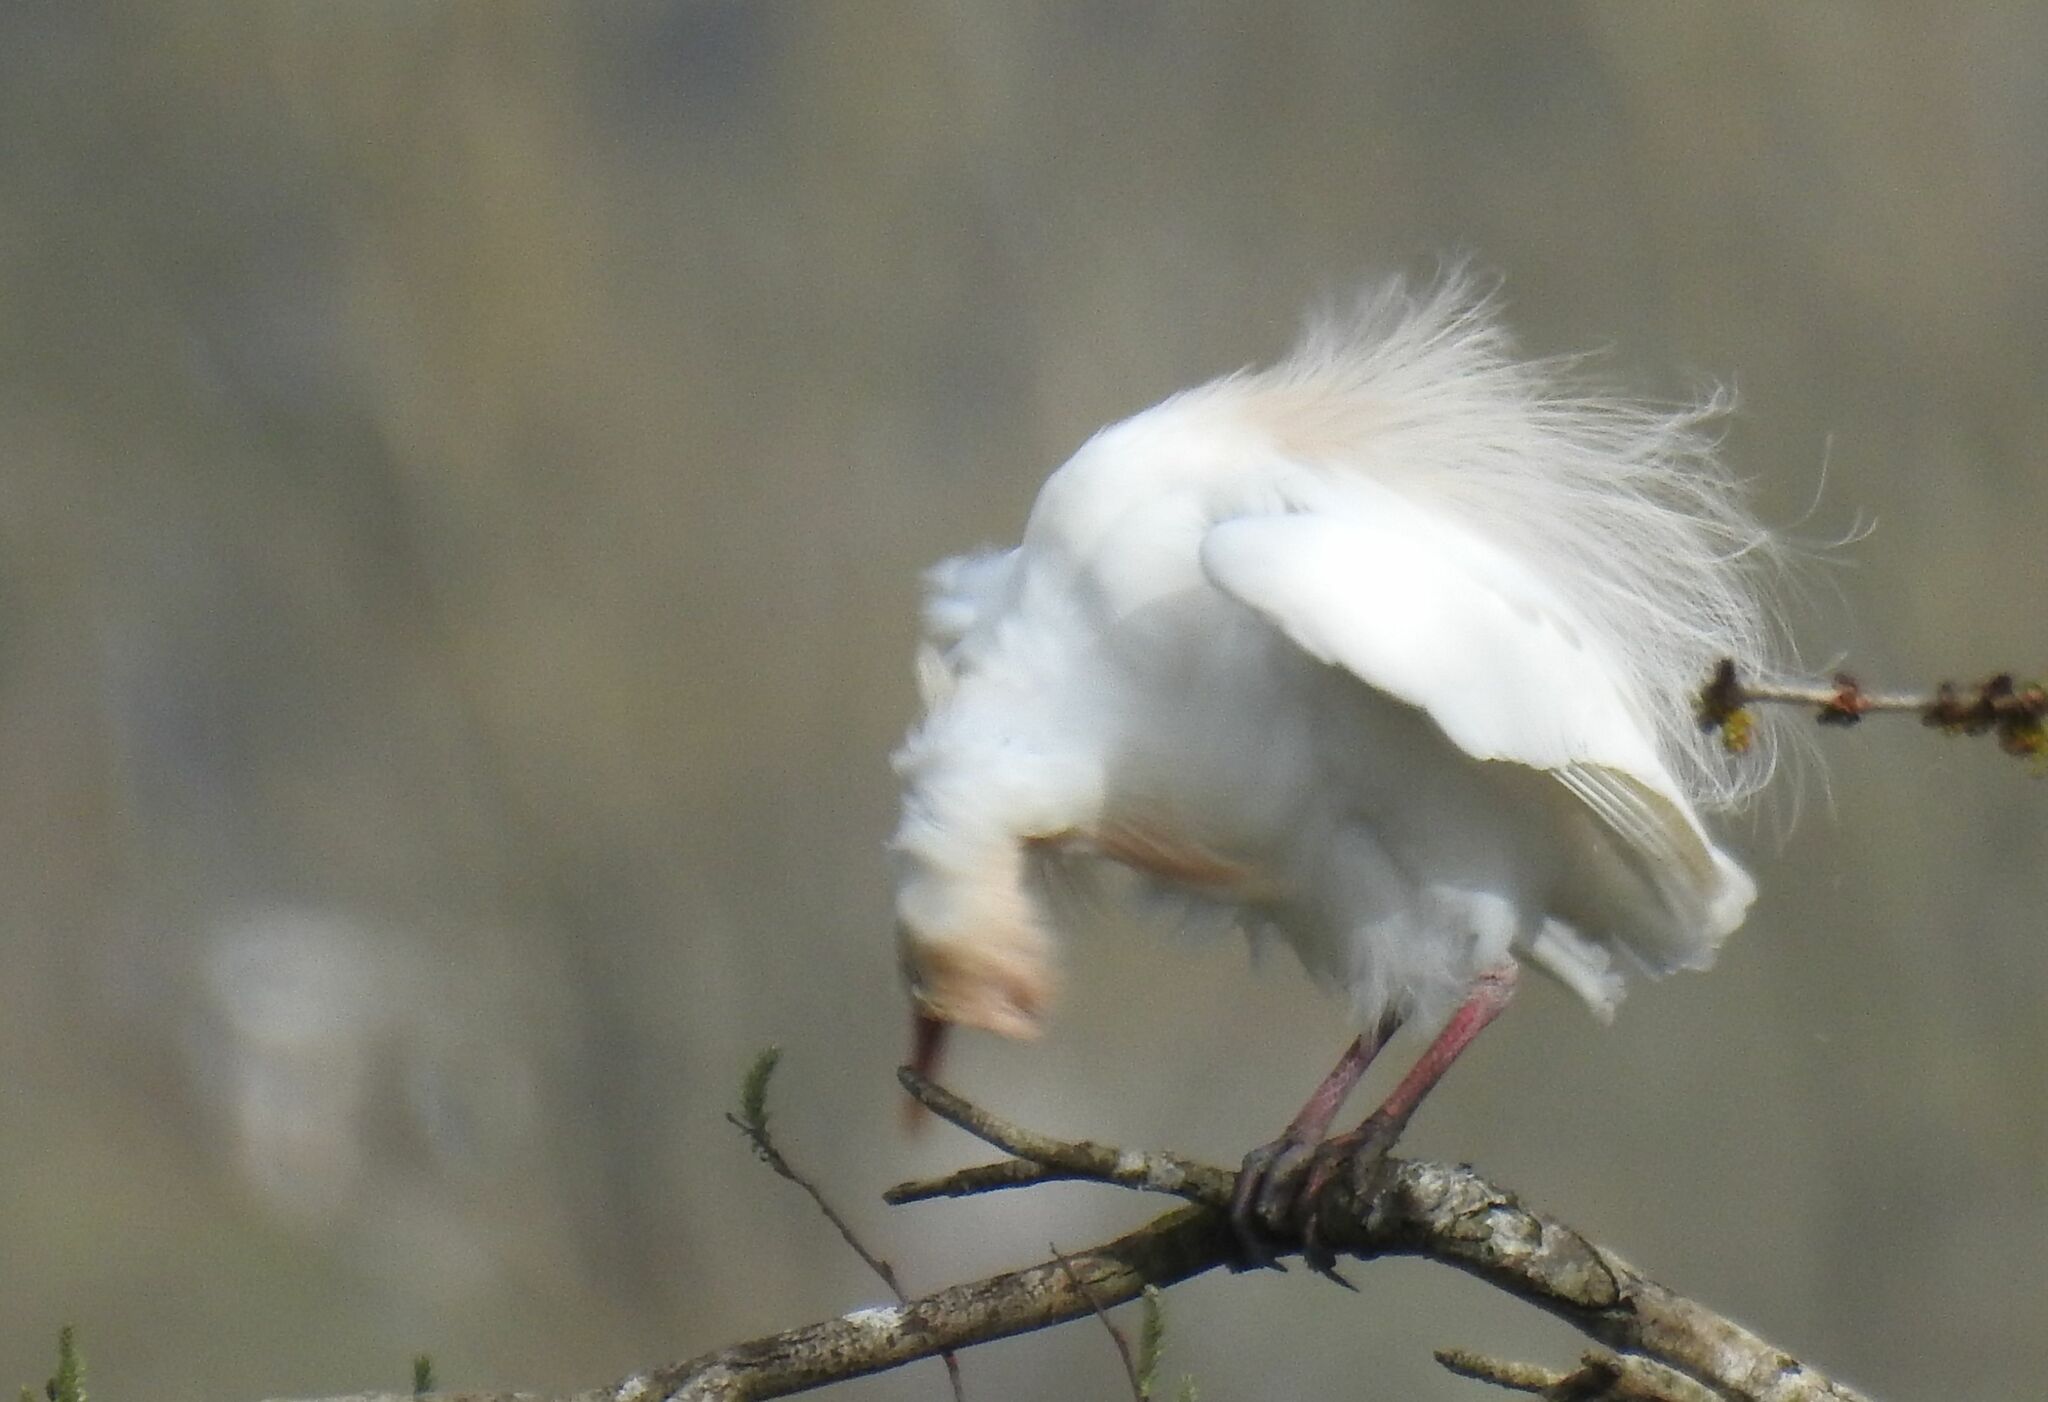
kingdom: Animalia
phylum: Chordata
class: Aves
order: Pelecaniformes
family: Ardeidae
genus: Bubulcus
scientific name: Bubulcus ibis
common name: Cattle egret
